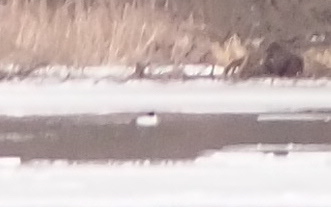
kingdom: Animalia
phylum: Chordata
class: Aves
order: Anseriformes
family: Anatidae
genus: Bucephala
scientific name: Bucephala clangula
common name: Common goldeneye
